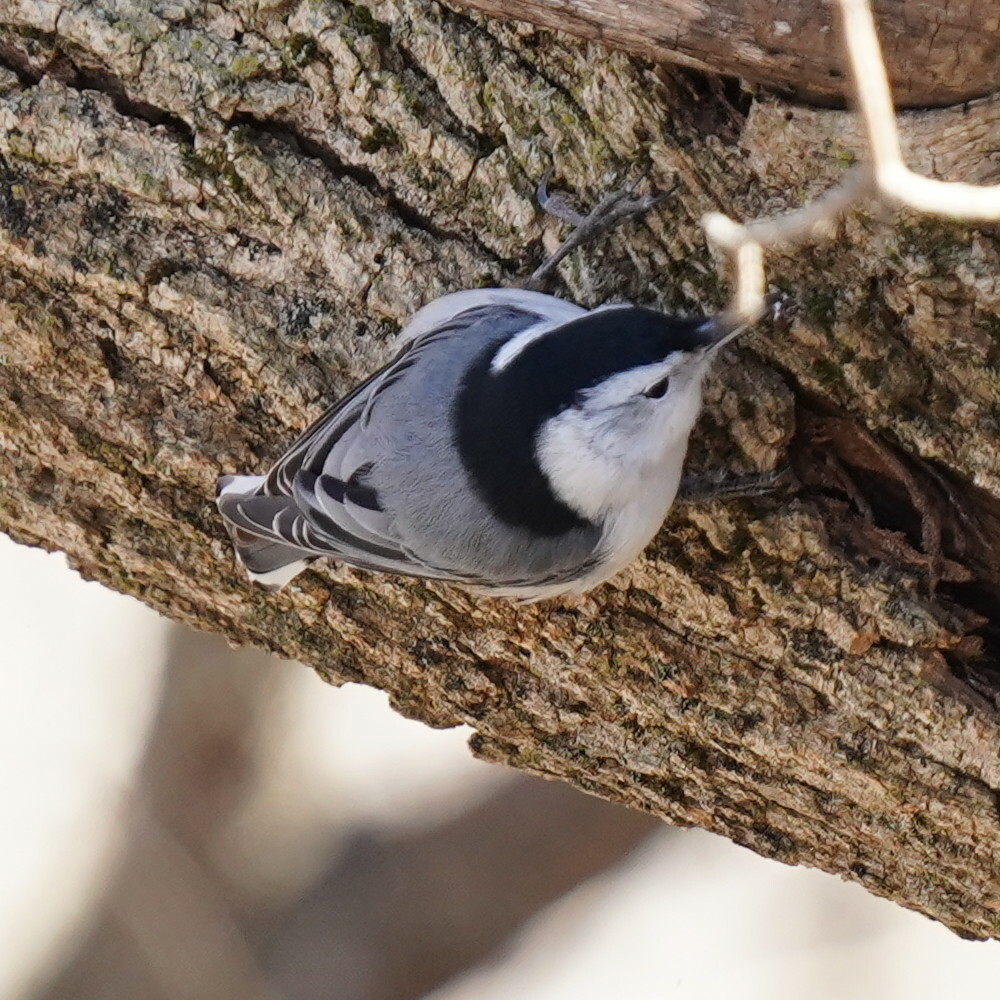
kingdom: Animalia
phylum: Chordata
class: Aves
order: Passeriformes
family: Sittidae
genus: Sitta
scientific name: Sitta carolinensis
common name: White-breasted nuthatch
